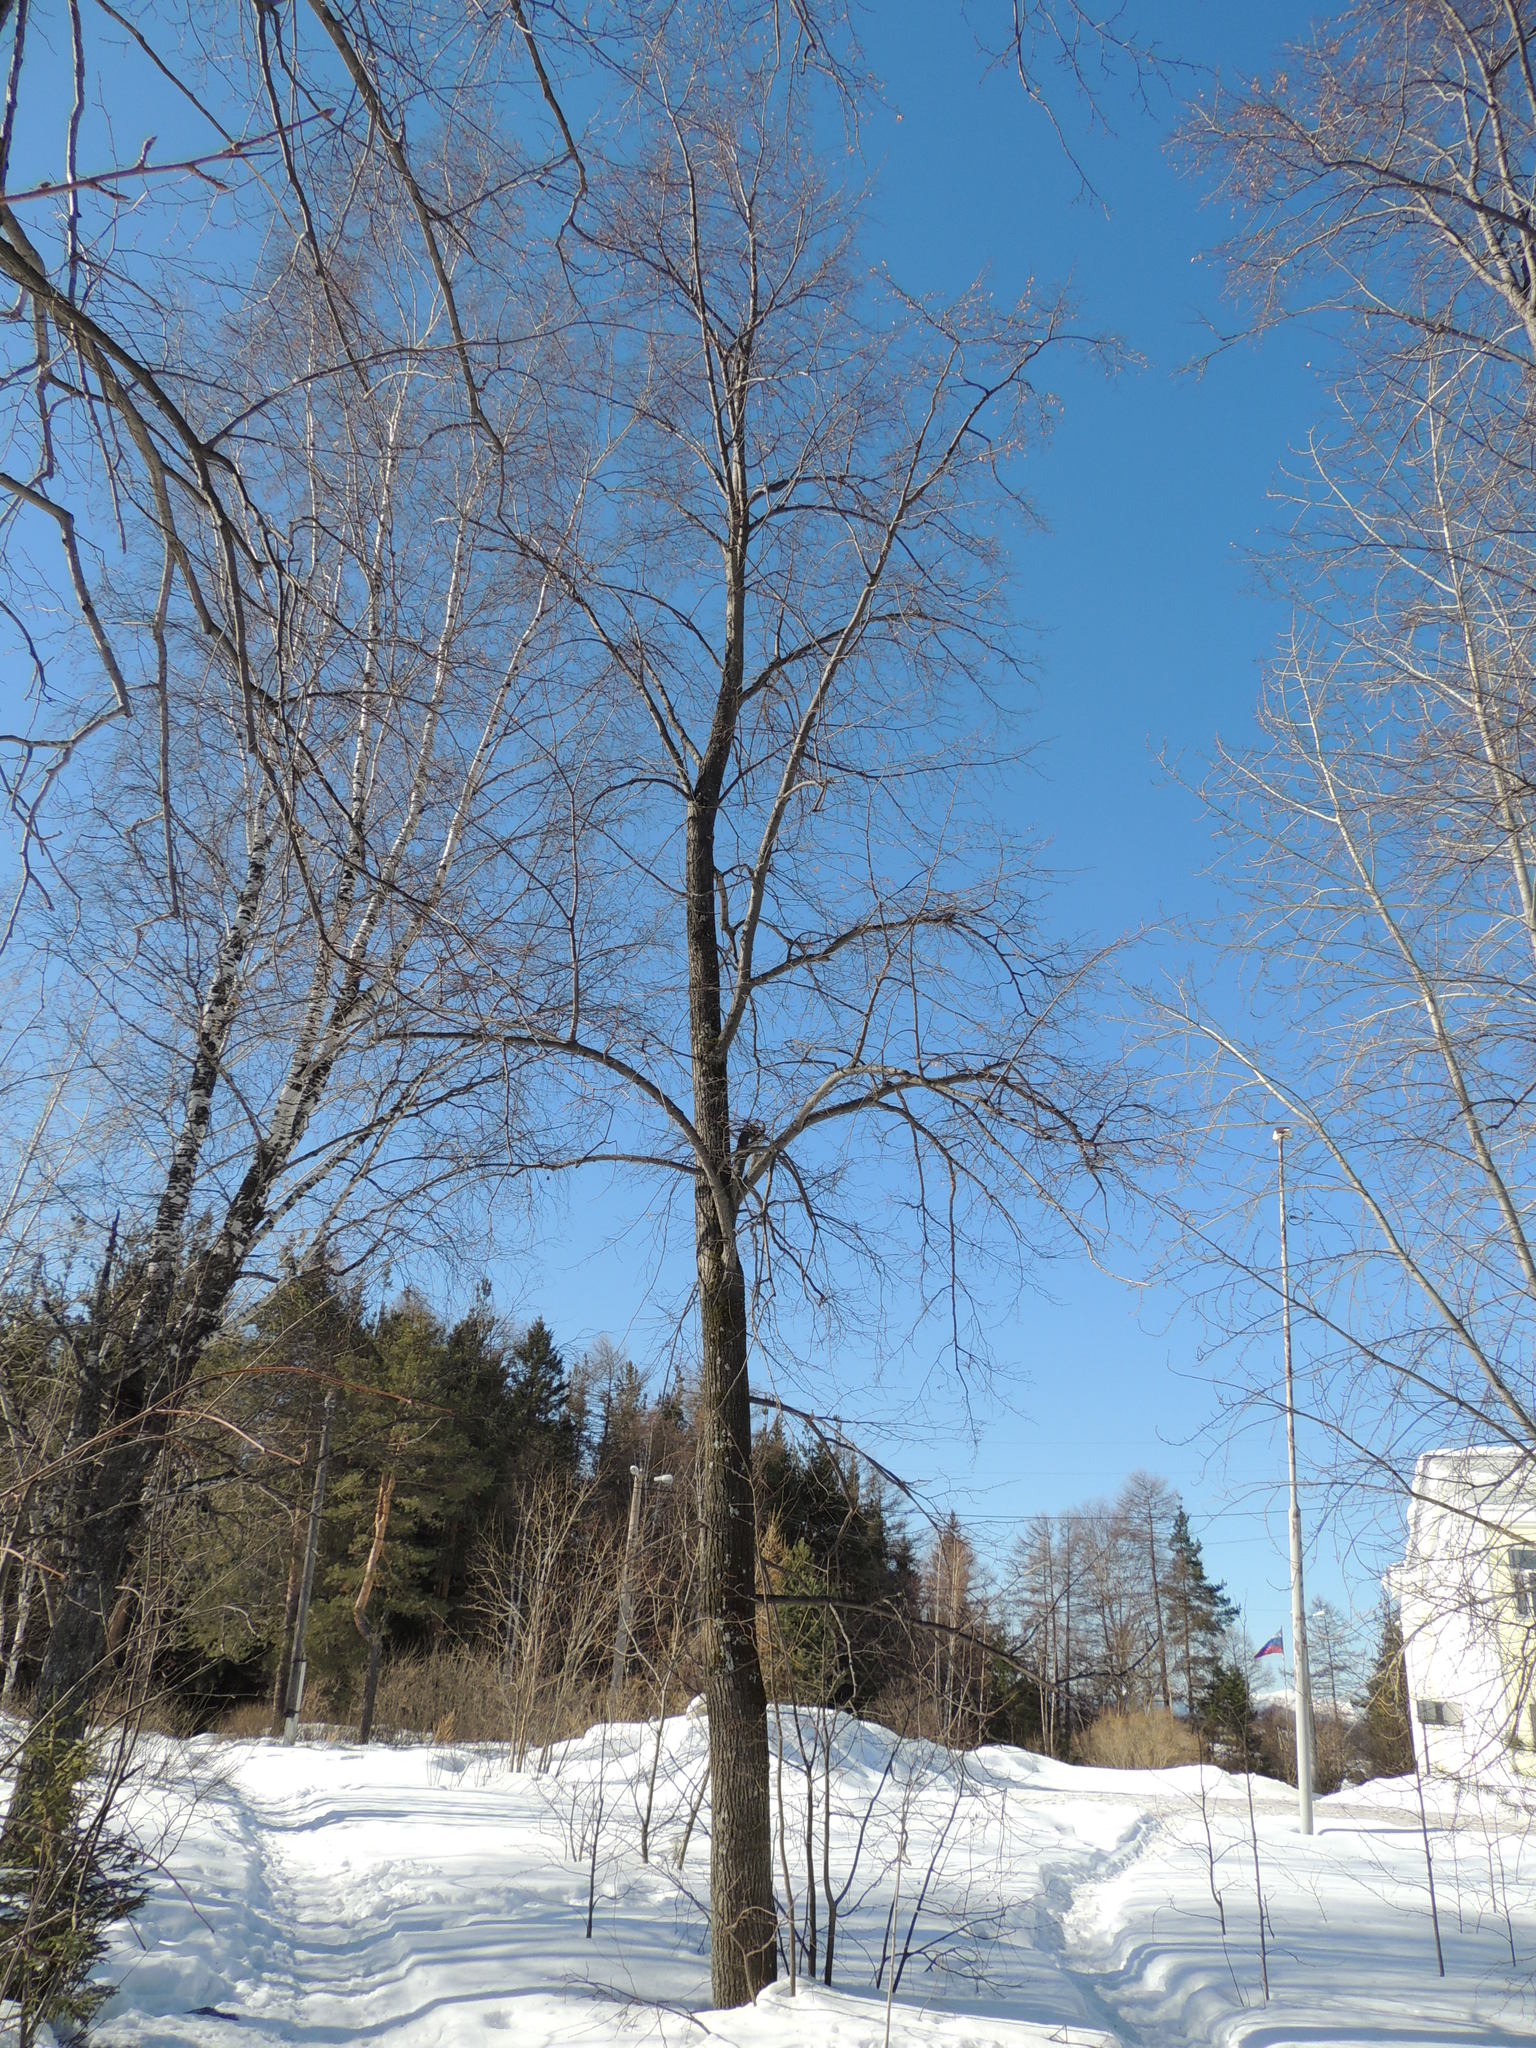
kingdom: Plantae
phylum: Tracheophyta
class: Magnoliopsida
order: Malvales
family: Malvaceae
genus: Tilia
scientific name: Tilia cordata
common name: Small-leaved lime
